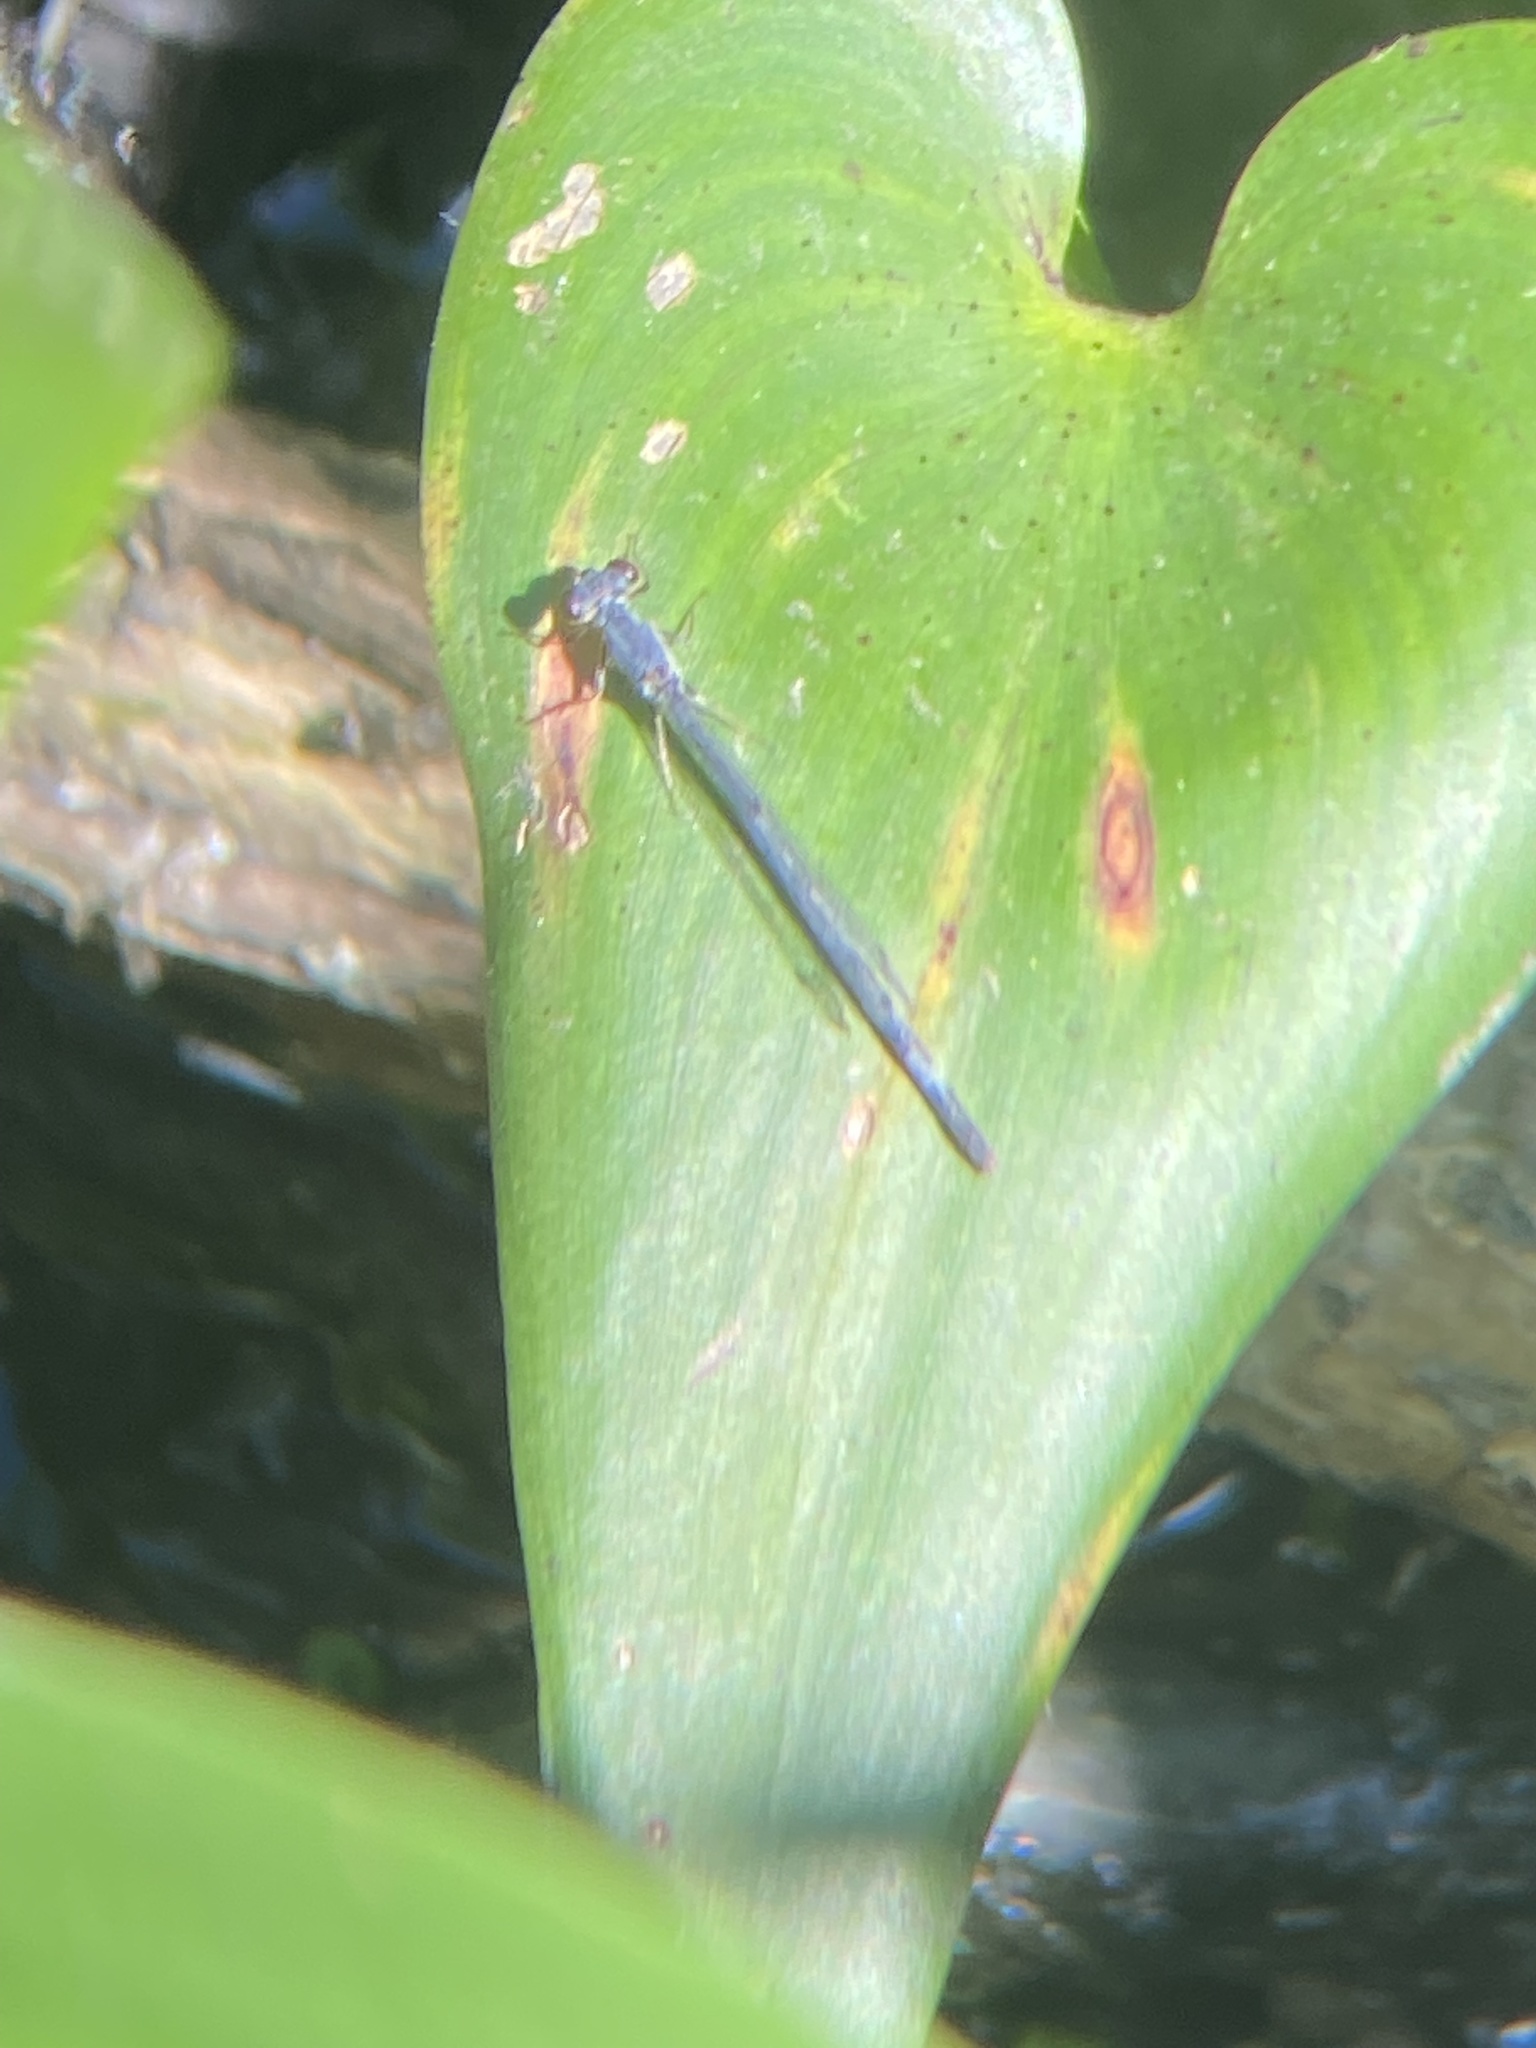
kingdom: Animalia
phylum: Arthropoda
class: Insecta
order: Odonata
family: Coenagrionidae
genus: Ischnura
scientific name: Ischnura posita
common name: Fragile forktail
